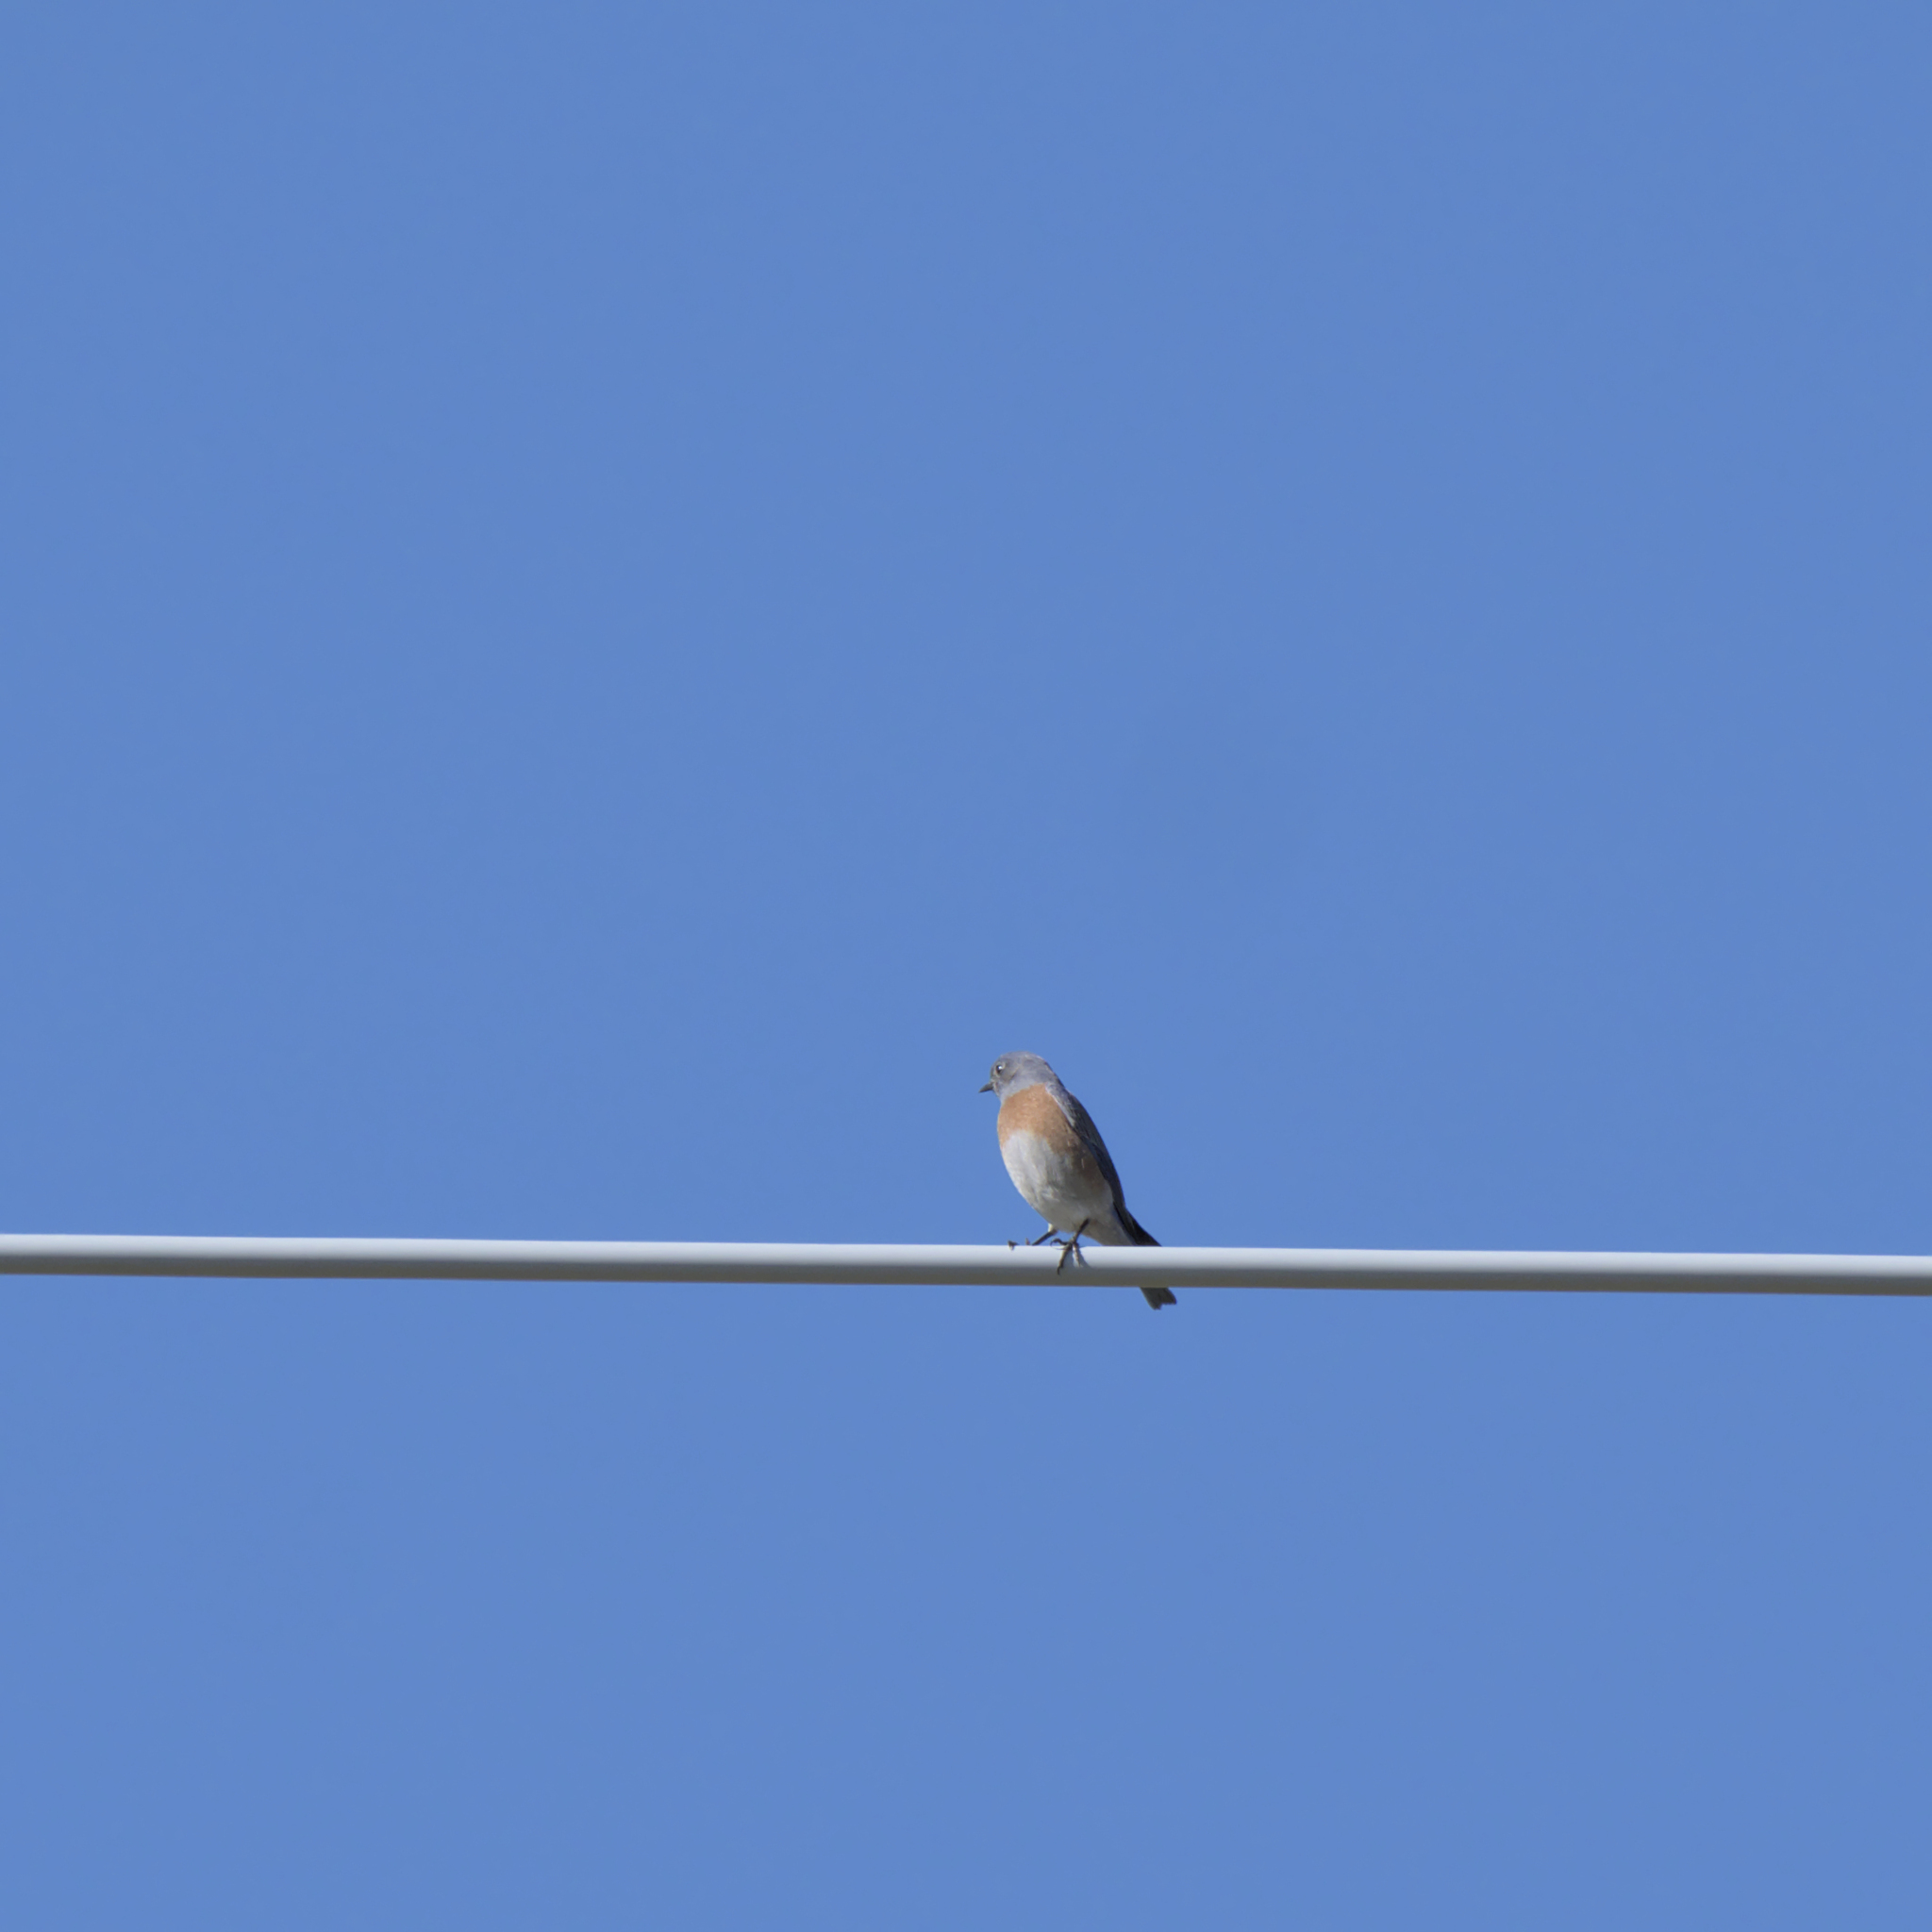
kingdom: Animalia
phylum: Chordata
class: Aves
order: Passeriformes
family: Turdidae
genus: Sialia
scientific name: Sialia mexicana
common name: Western bluebird
